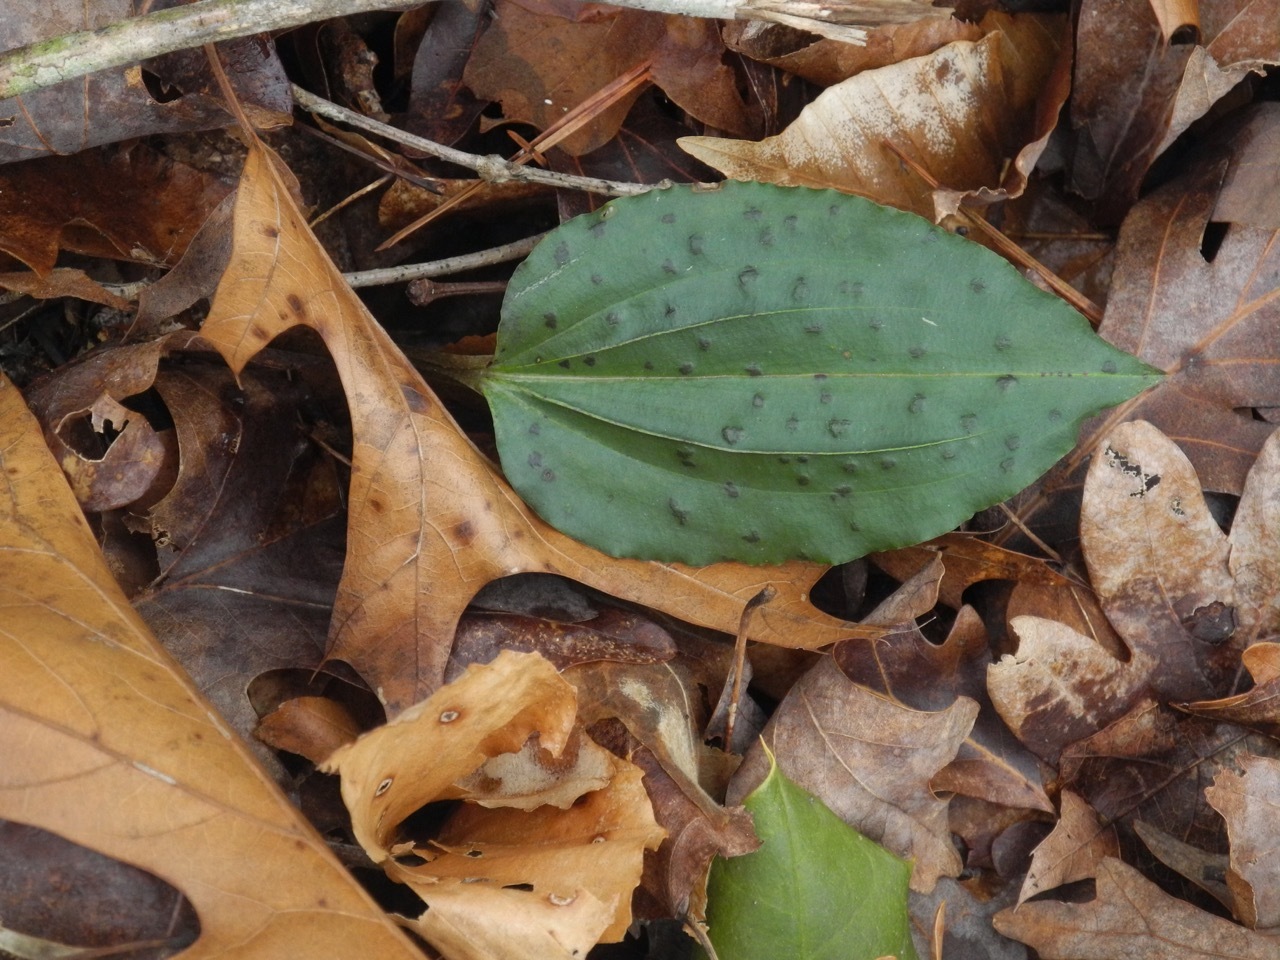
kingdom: Plantae
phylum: Tracheophyta
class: Liliopsida
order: Asparagales
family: Orchidaceae
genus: Tipularia
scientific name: Tipularia discolor
